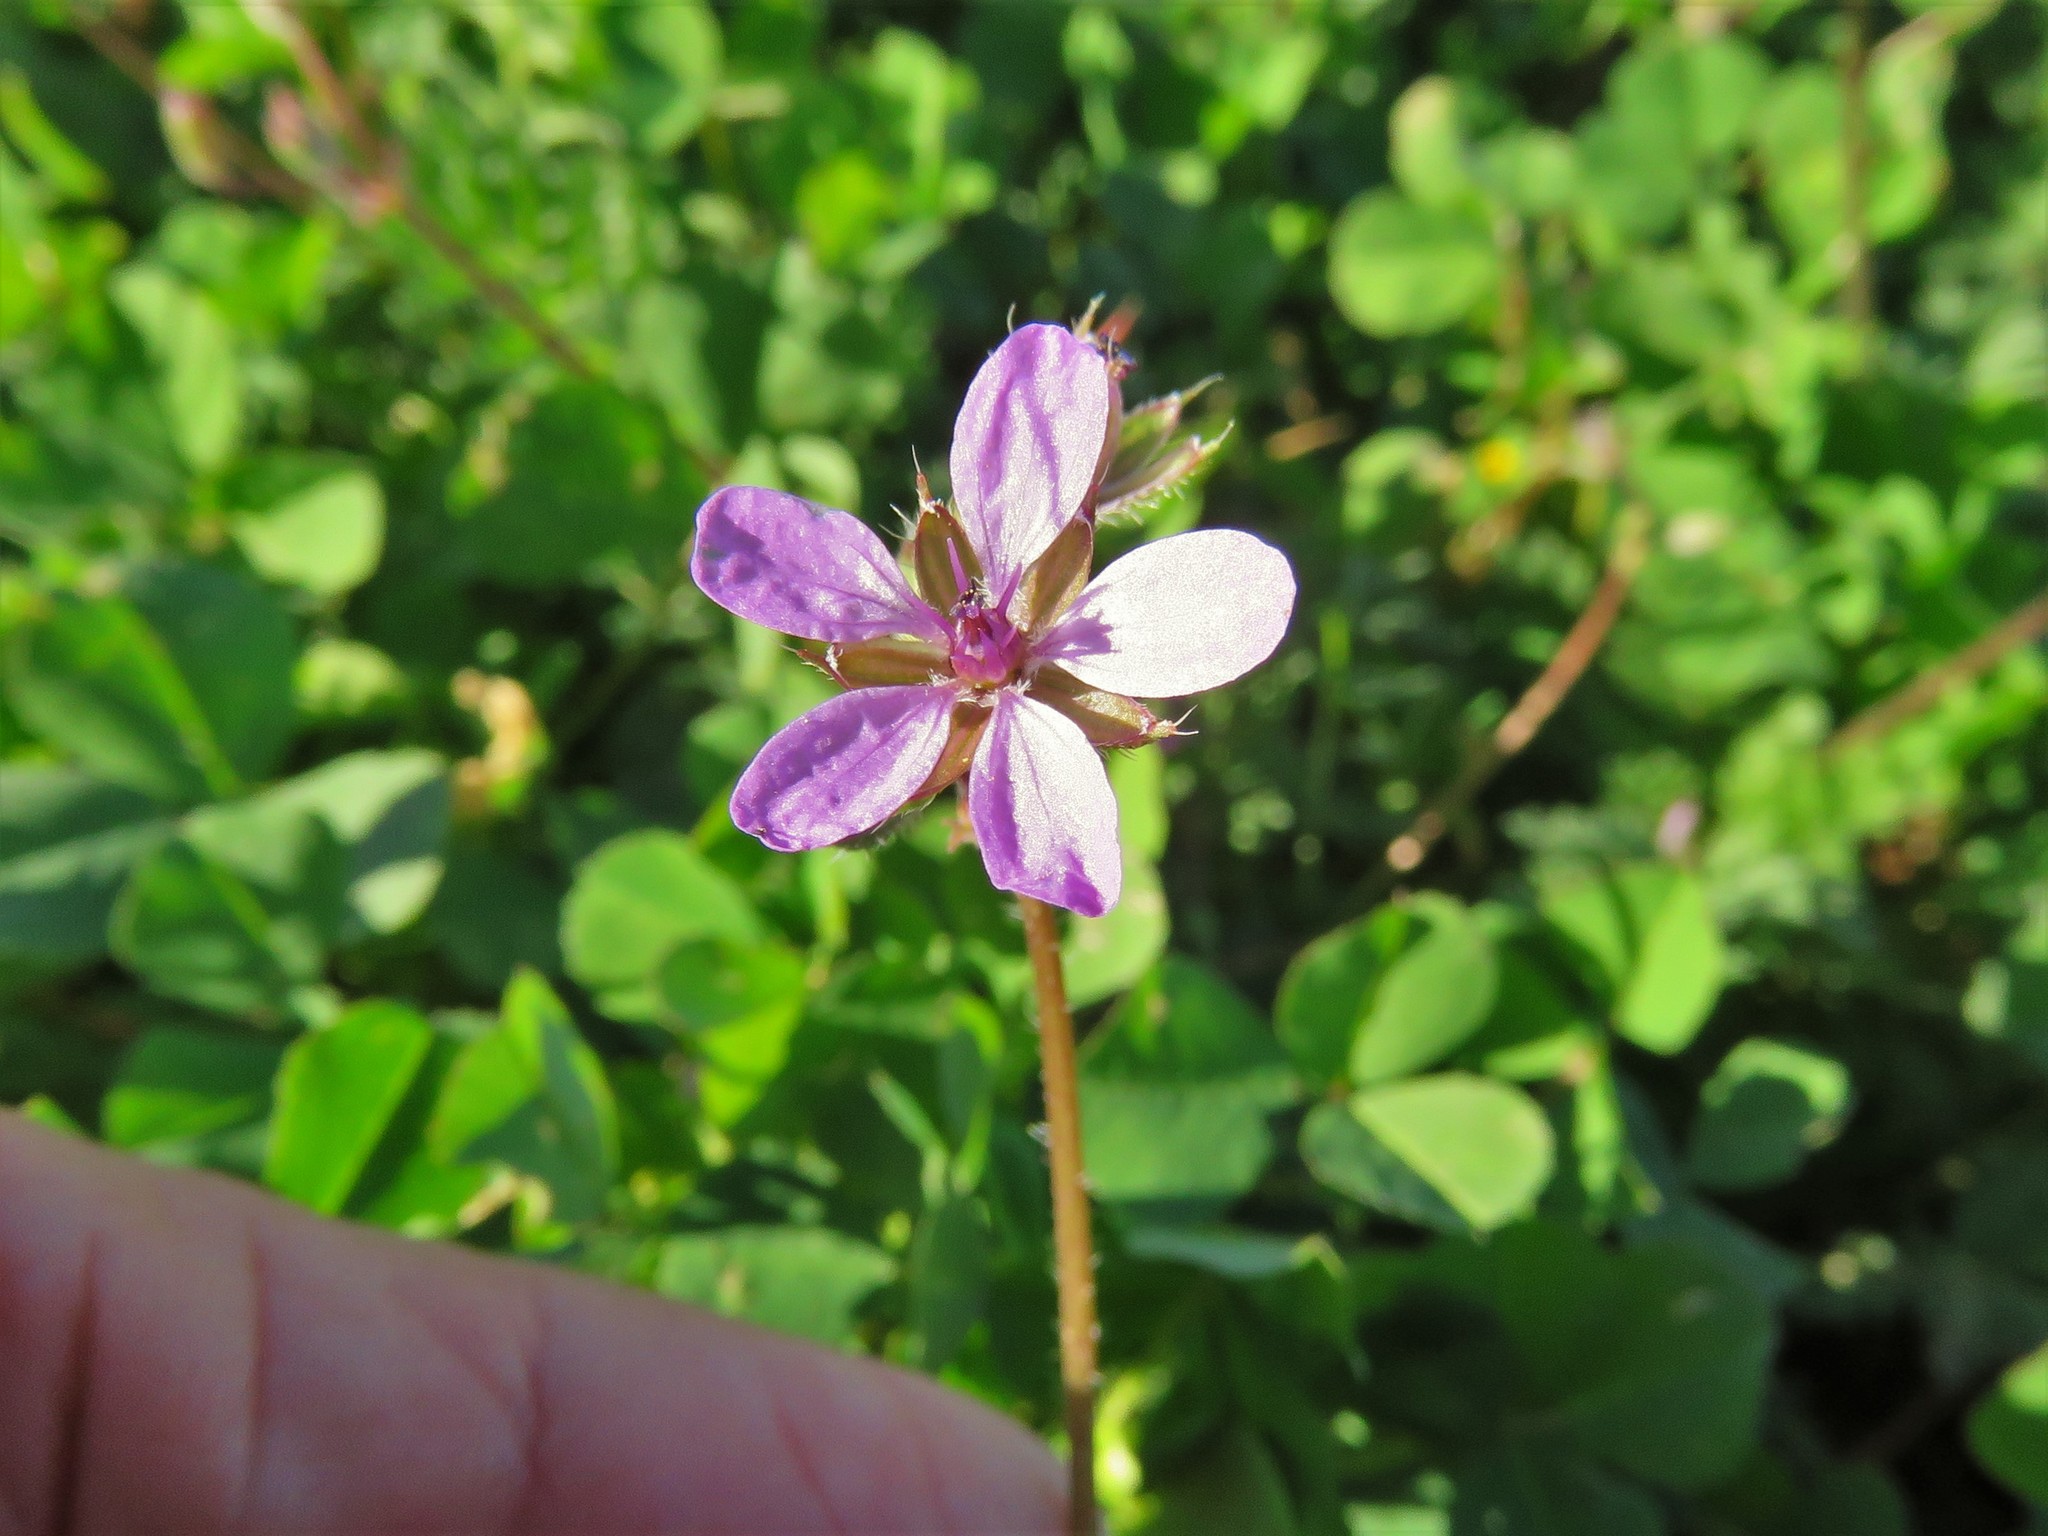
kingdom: Plantae
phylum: Tracheophyta
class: Magnoliopsida
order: Geraniales
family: Geraniaceae
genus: Erodium
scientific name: Erodium cicutarium
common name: Common stork's-bill
